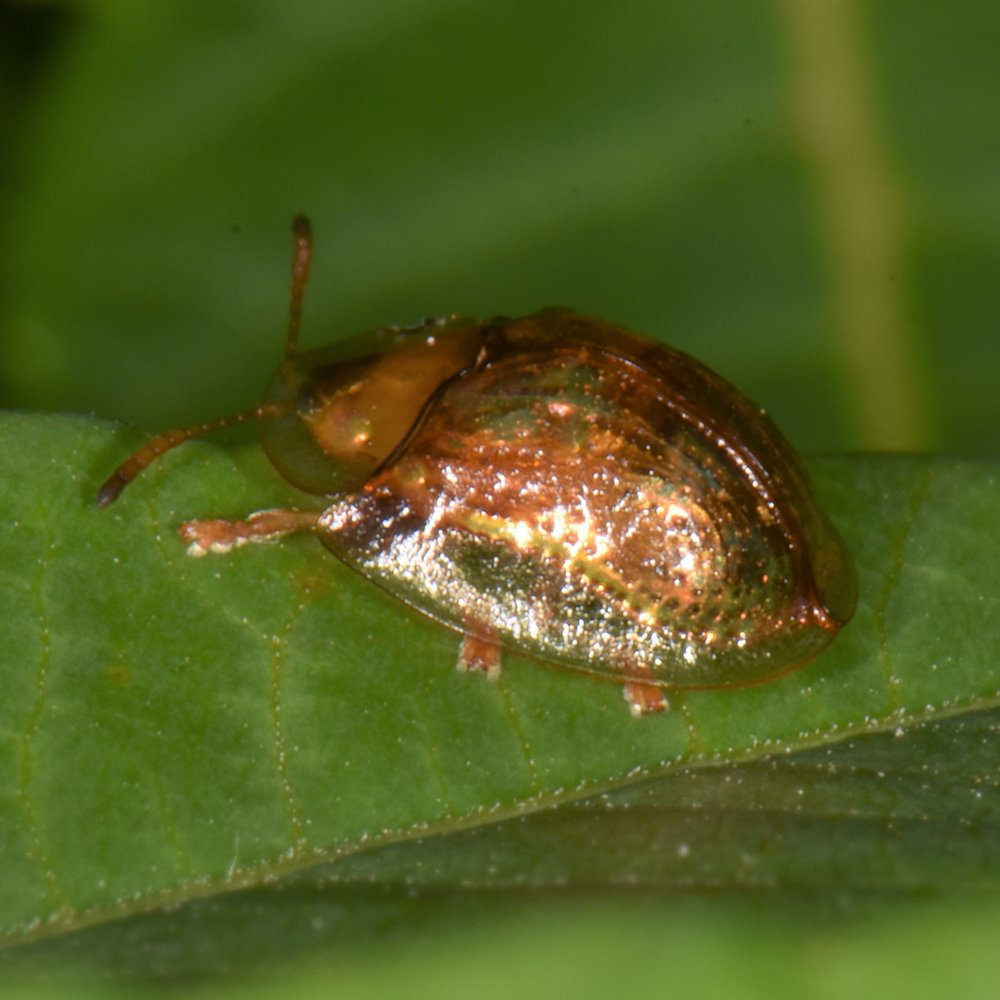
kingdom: Animalia
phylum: Arthropoda
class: Insecta
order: Coleoptera
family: Chrysomelidae
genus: Deloyala
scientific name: Deloyala guttata
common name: Mottled tortoise beetle
